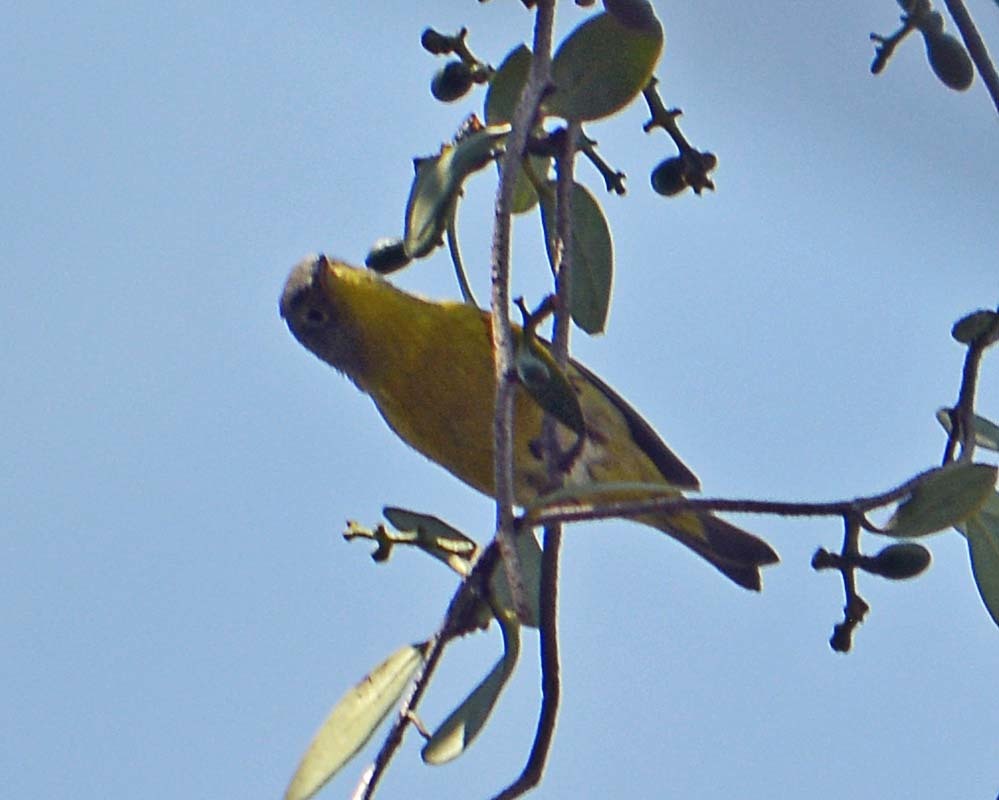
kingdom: Animalia
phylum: Chordata
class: Aves
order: Passeriformes
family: Parulidae
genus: Leiothlypis
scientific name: Leiothlypis ruficapilla
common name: Nashville warbler
